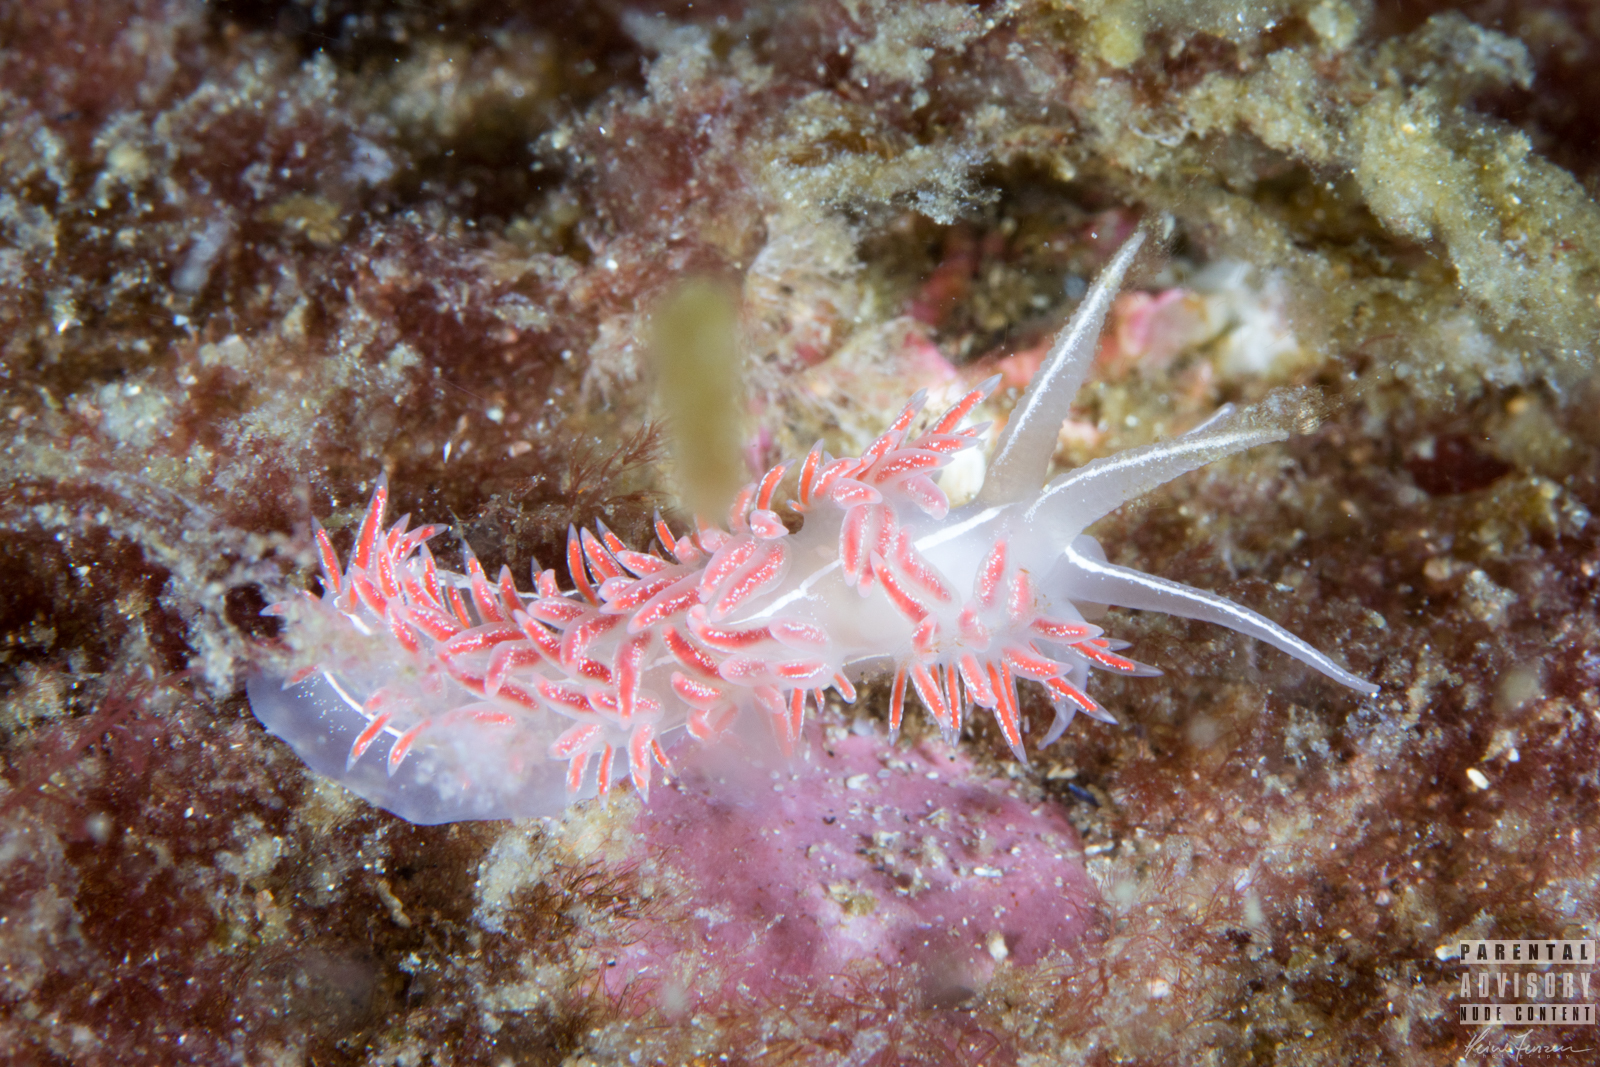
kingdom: Animalia
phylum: Mollusca
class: Gastropoda
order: Nudibranchia
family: Coryphellidae
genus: Coryphella
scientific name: Coryphella chriskaugei
